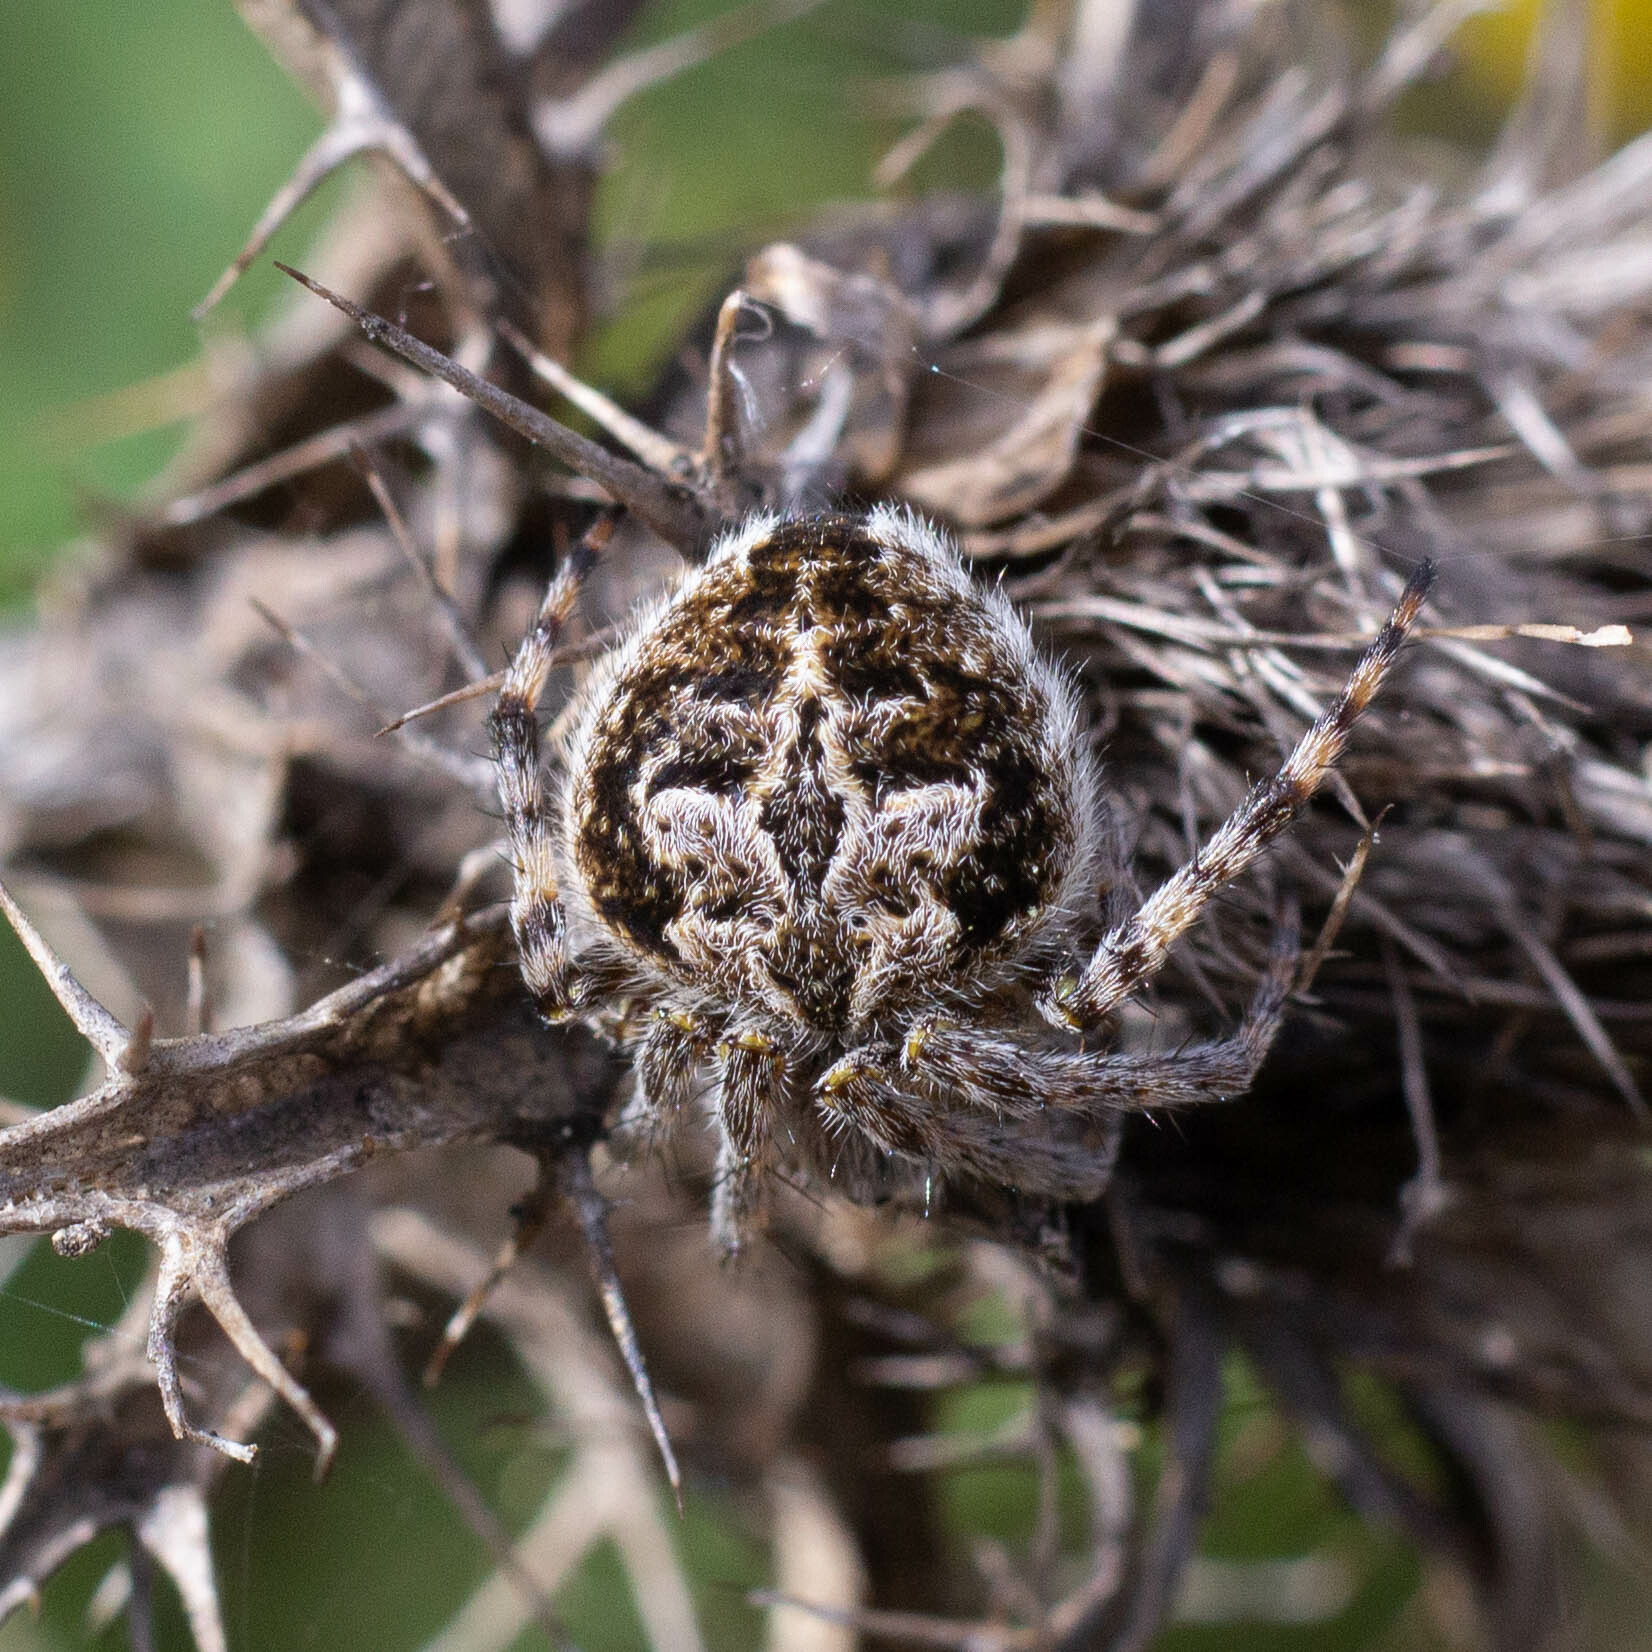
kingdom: Animalia
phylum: Arthropoda
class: Arachnida
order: Araneae
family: Araneidae
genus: Agalenatea
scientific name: Agalenatea redii
